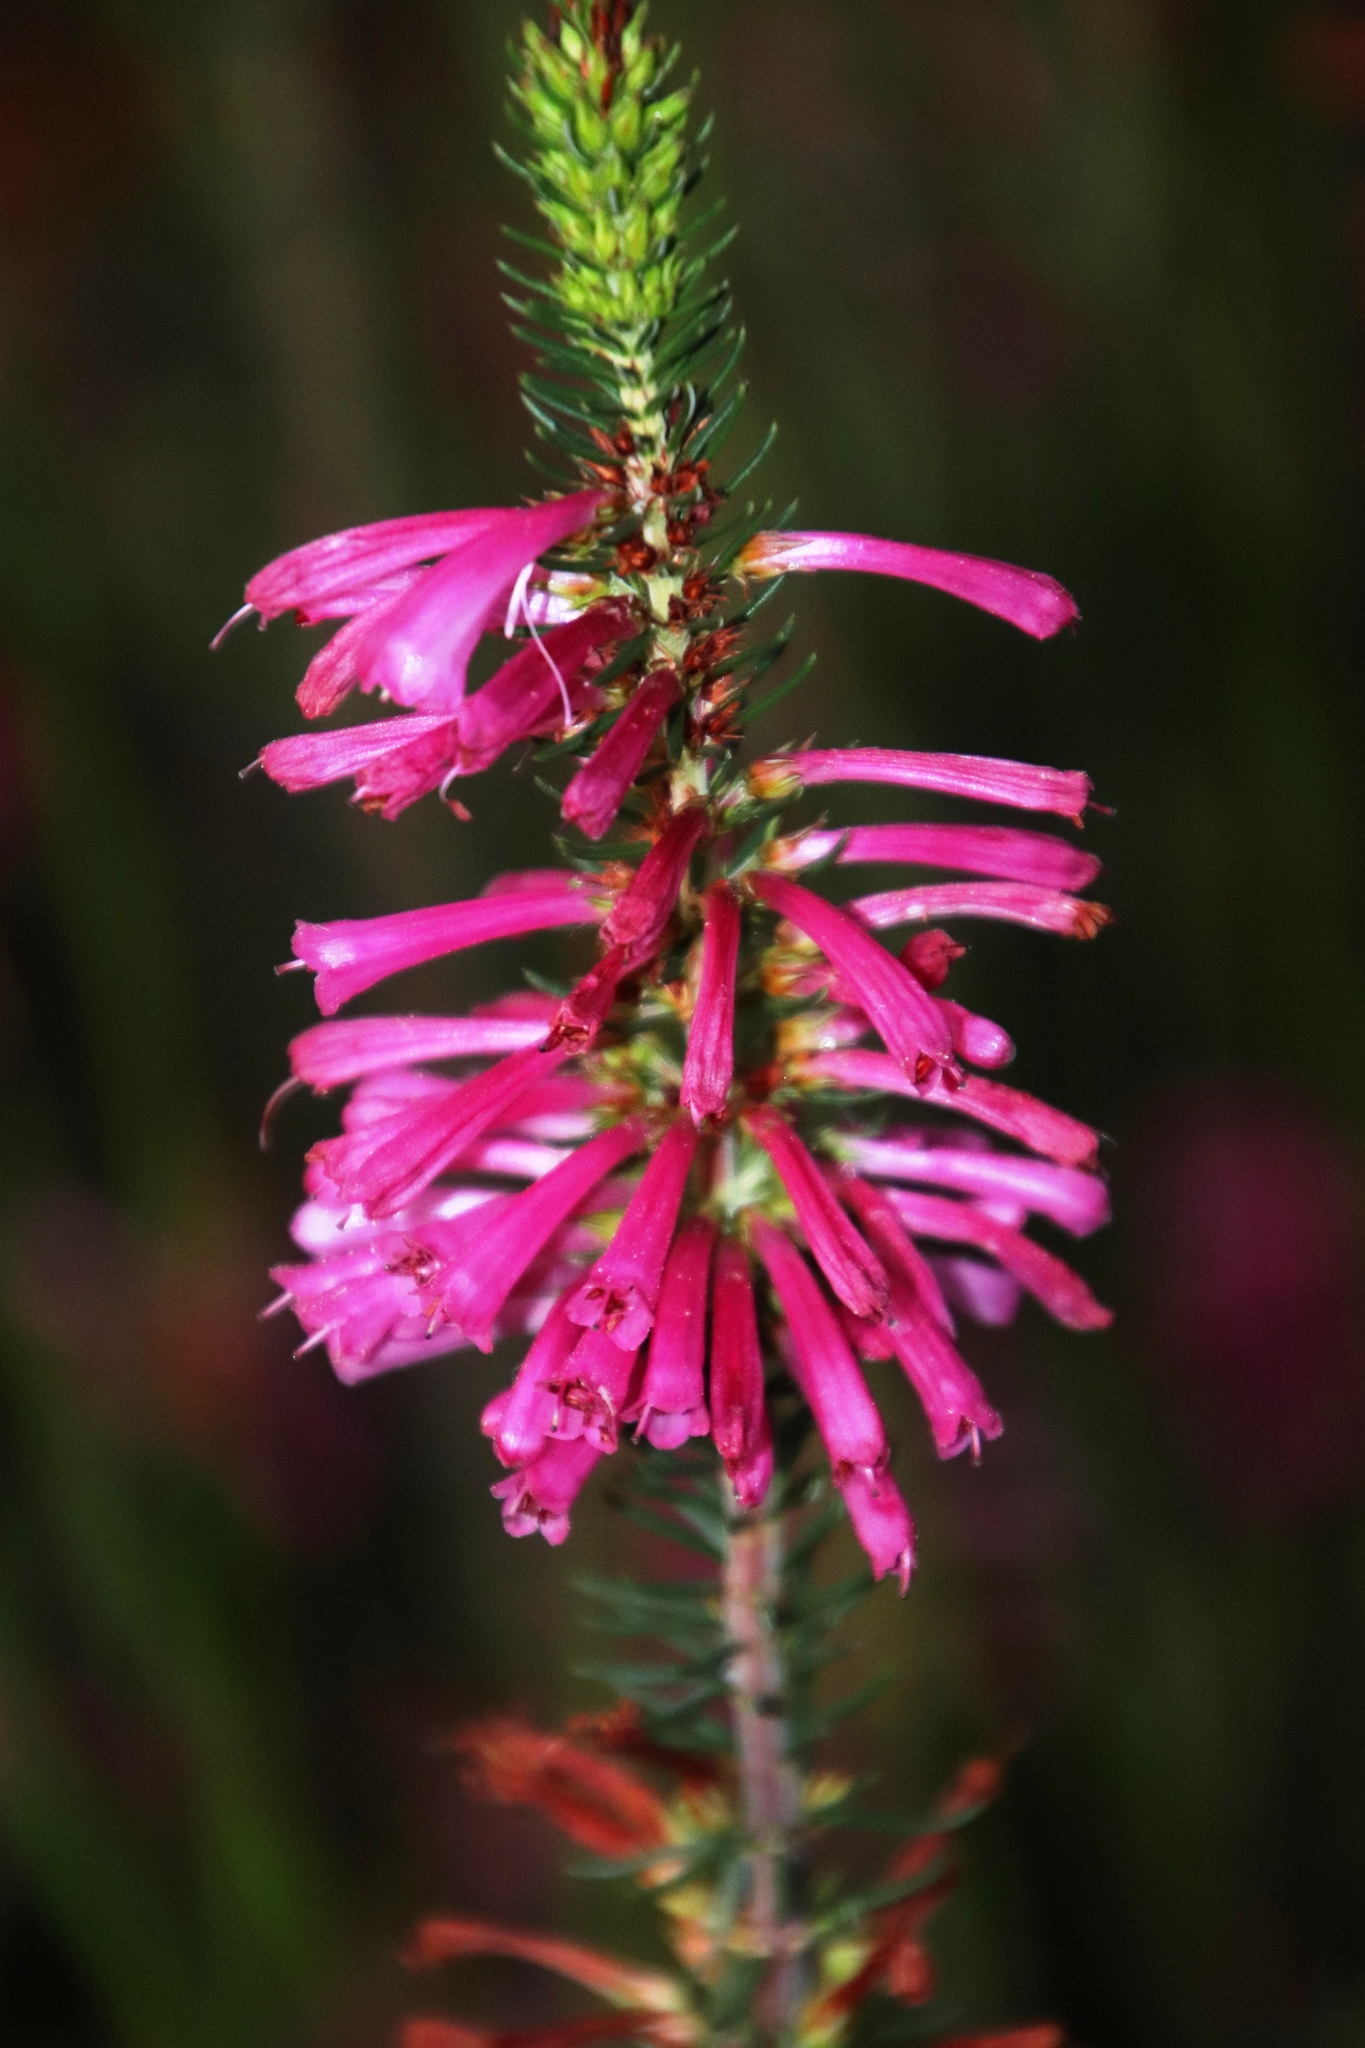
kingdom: Plantae
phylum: Tracheophyta
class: Magnoliopsida
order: Ericales
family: Ericaceae
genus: Erica
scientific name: Erica abietina
